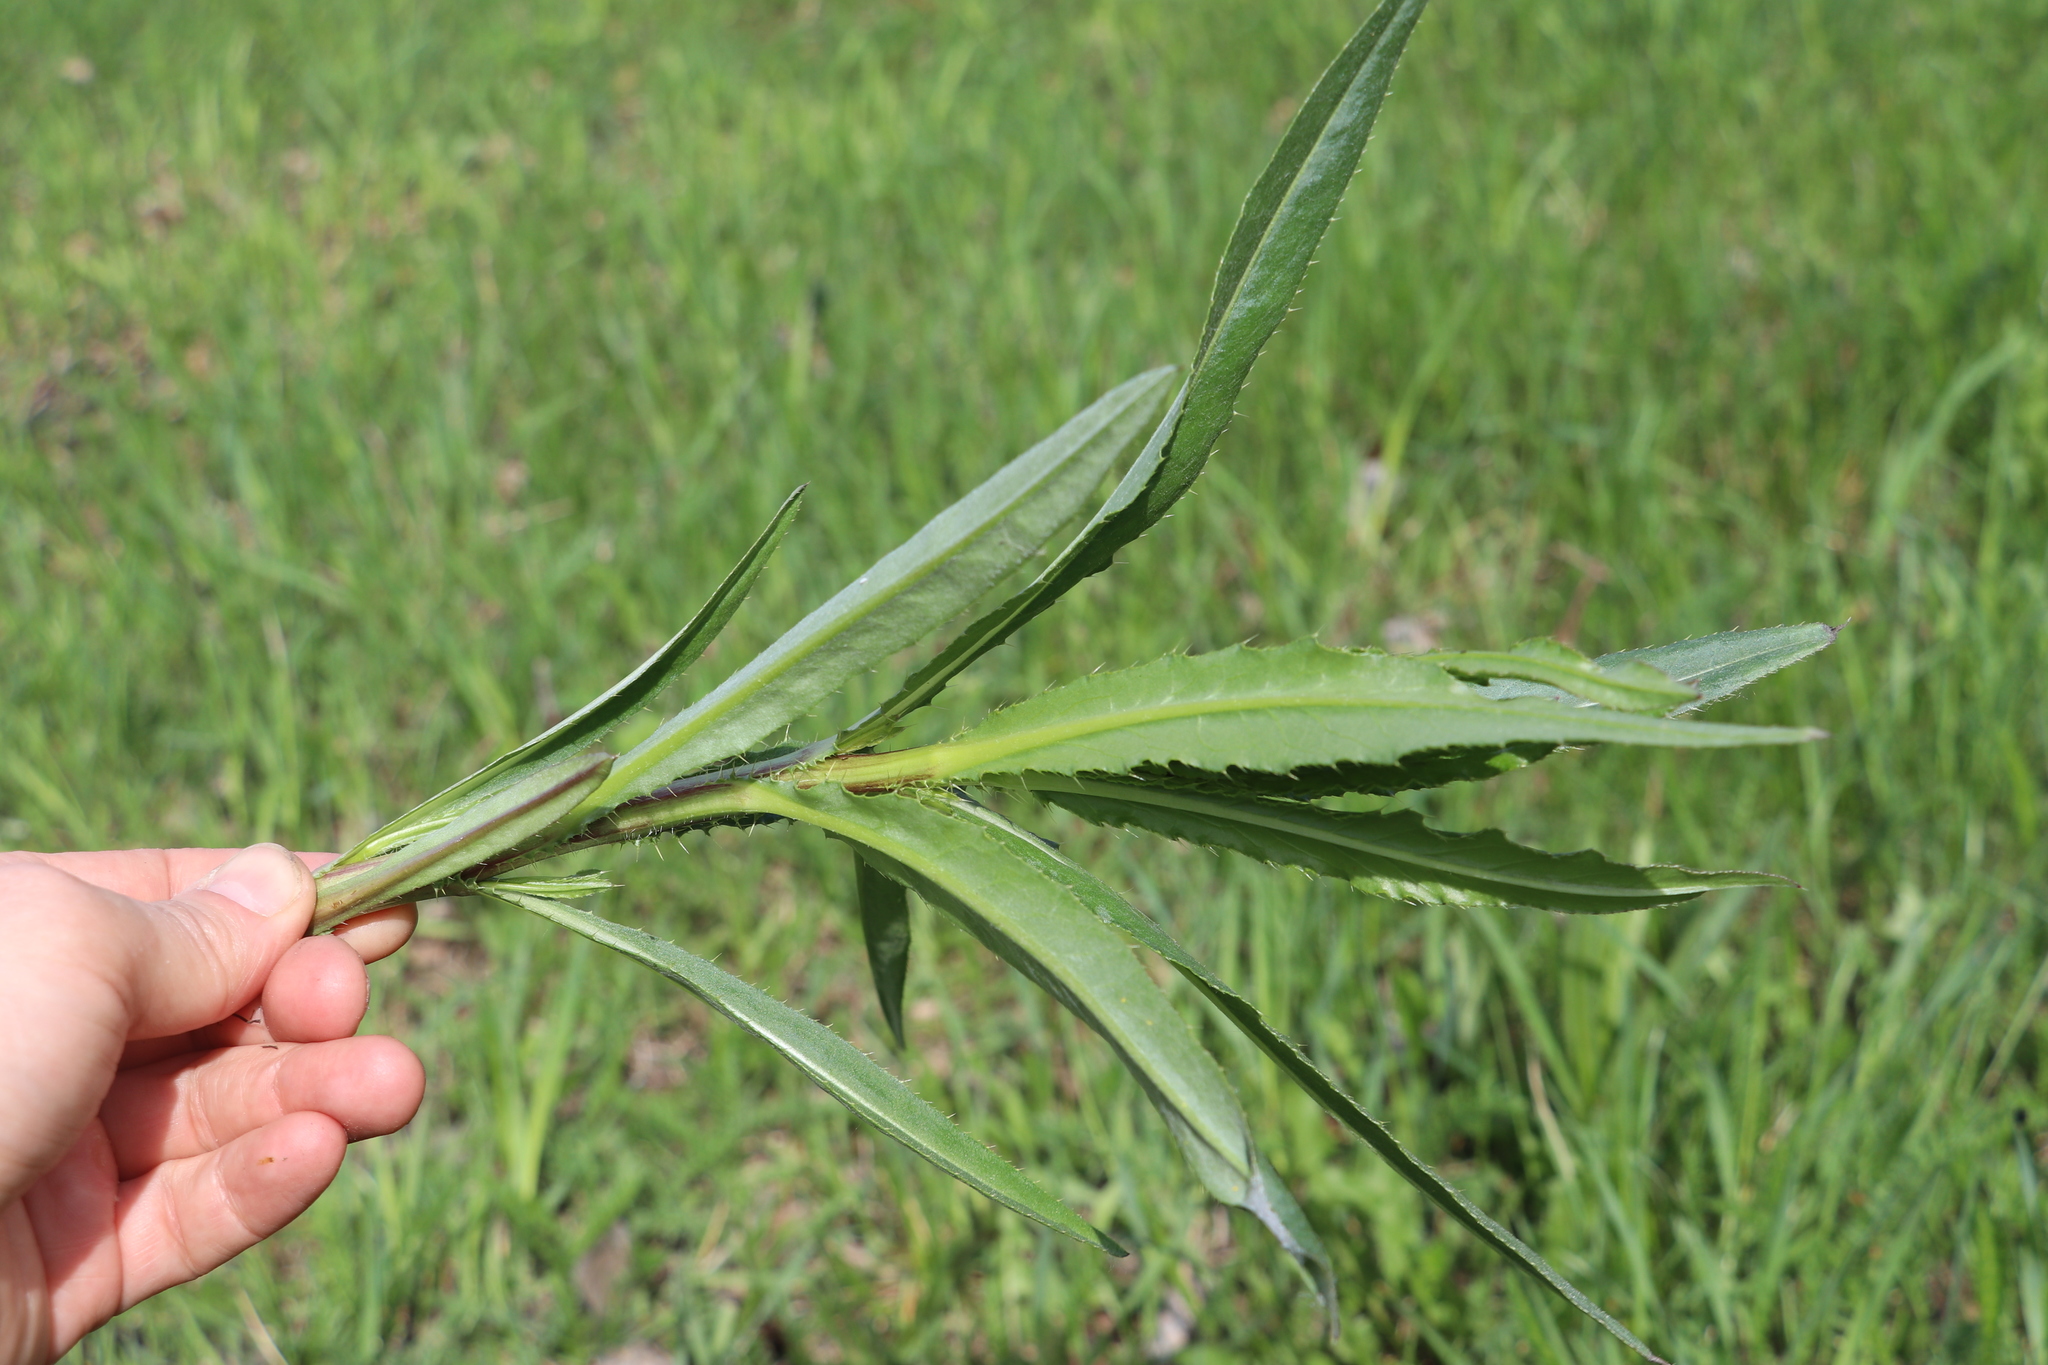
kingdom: Plantae
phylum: Tracheophyta
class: Magnoliopsida
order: Asterales
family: Asteraceae
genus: Cirsium
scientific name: Cirsium arvense
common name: Creeping thistle
